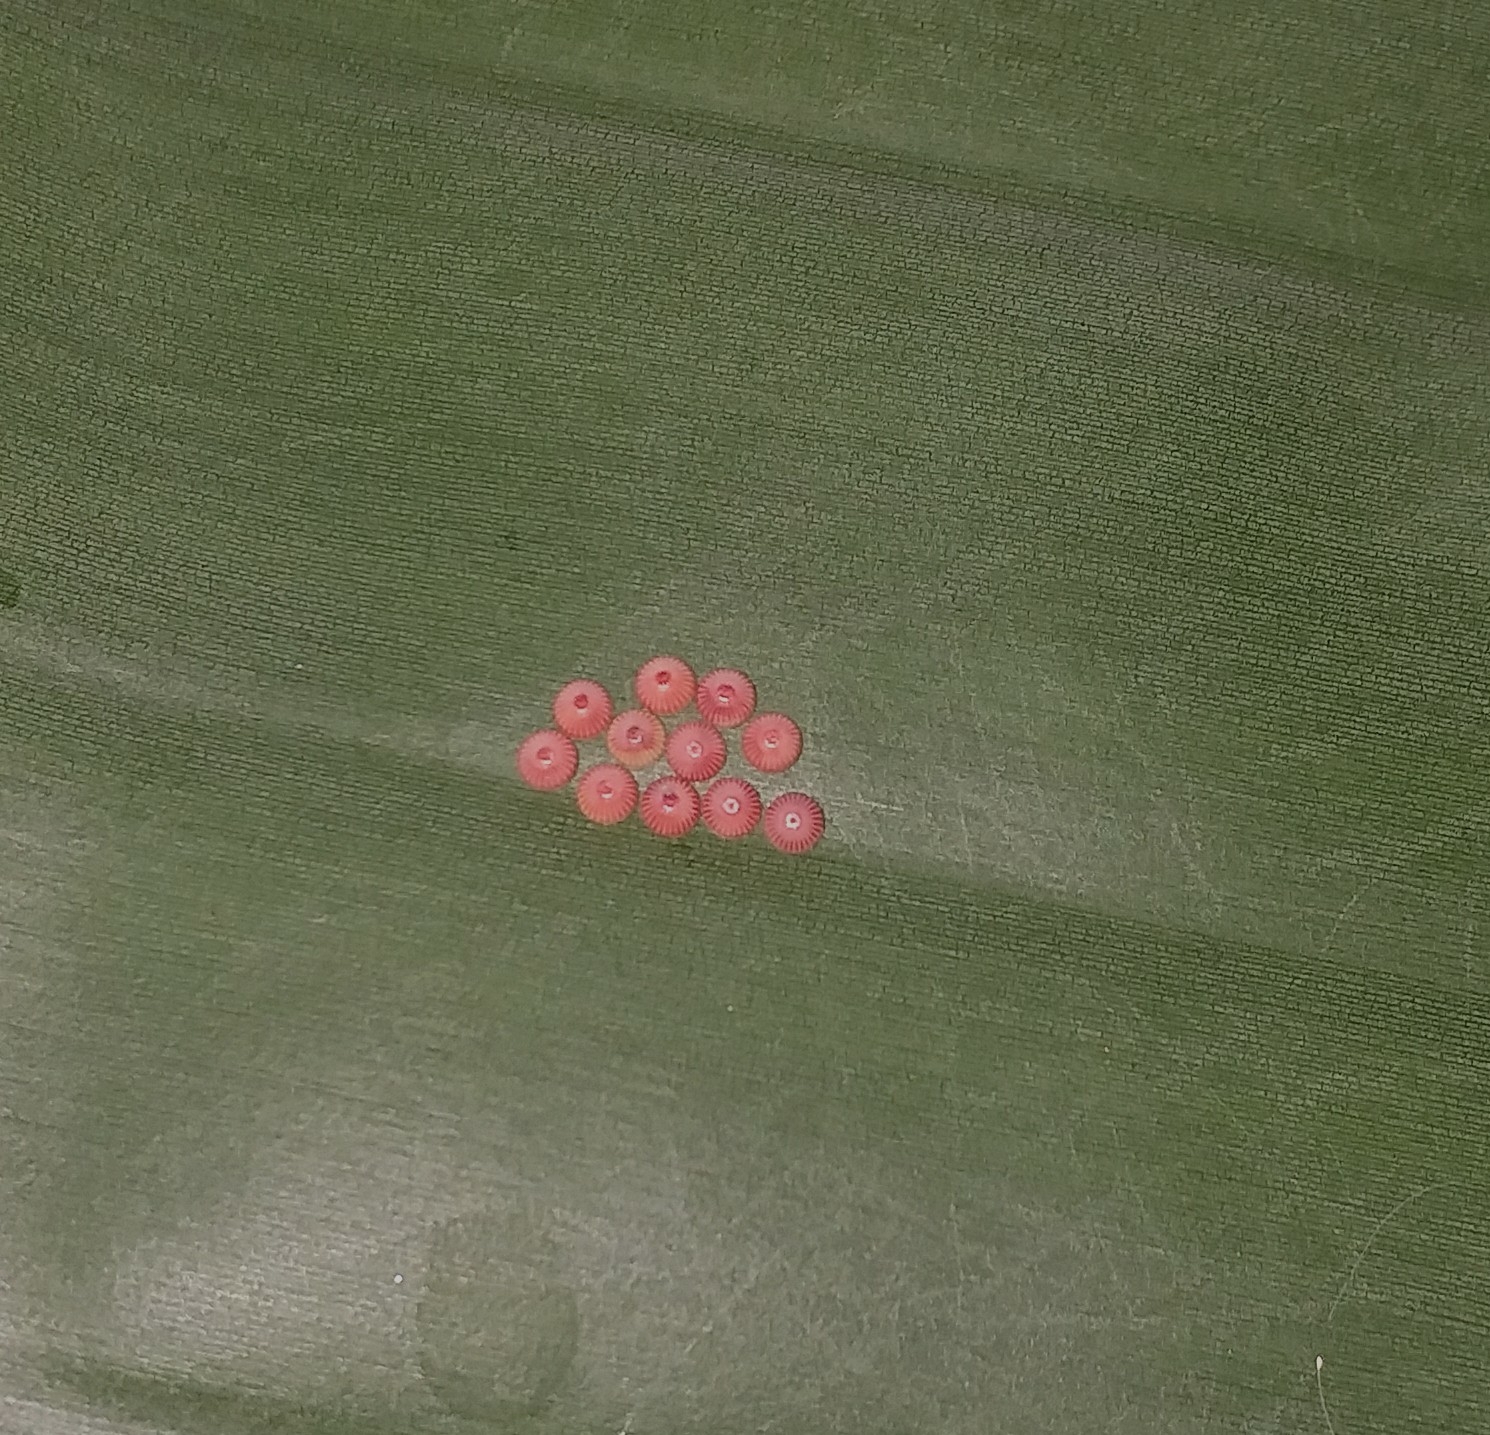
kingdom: Animalia
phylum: Arthropoda
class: Insecta
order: Lepidoptera
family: Hesperiidae
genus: Erionota
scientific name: Erionota torus
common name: Rounded palm-redeye
